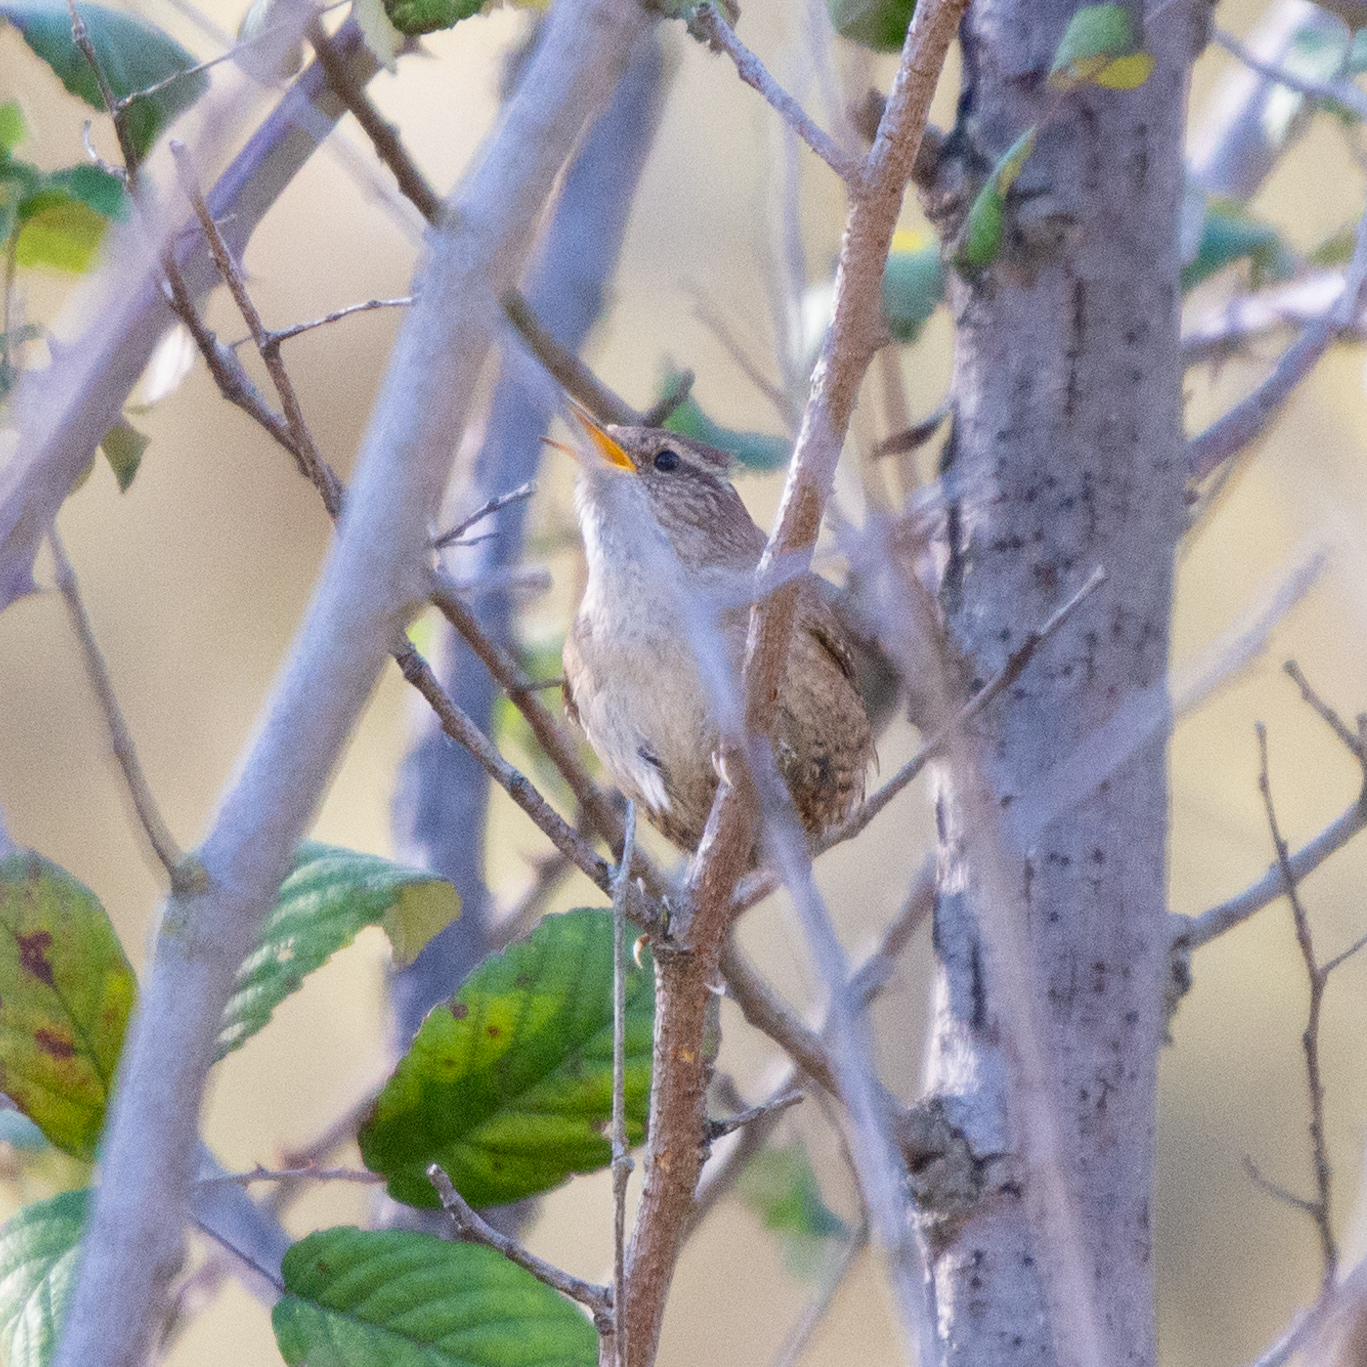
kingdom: Animalia
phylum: Chordata
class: Aves
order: Passeriformes
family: Troglodytidae
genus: Troglodytes
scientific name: Troglodytes troglodytes
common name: Eurasian wren
